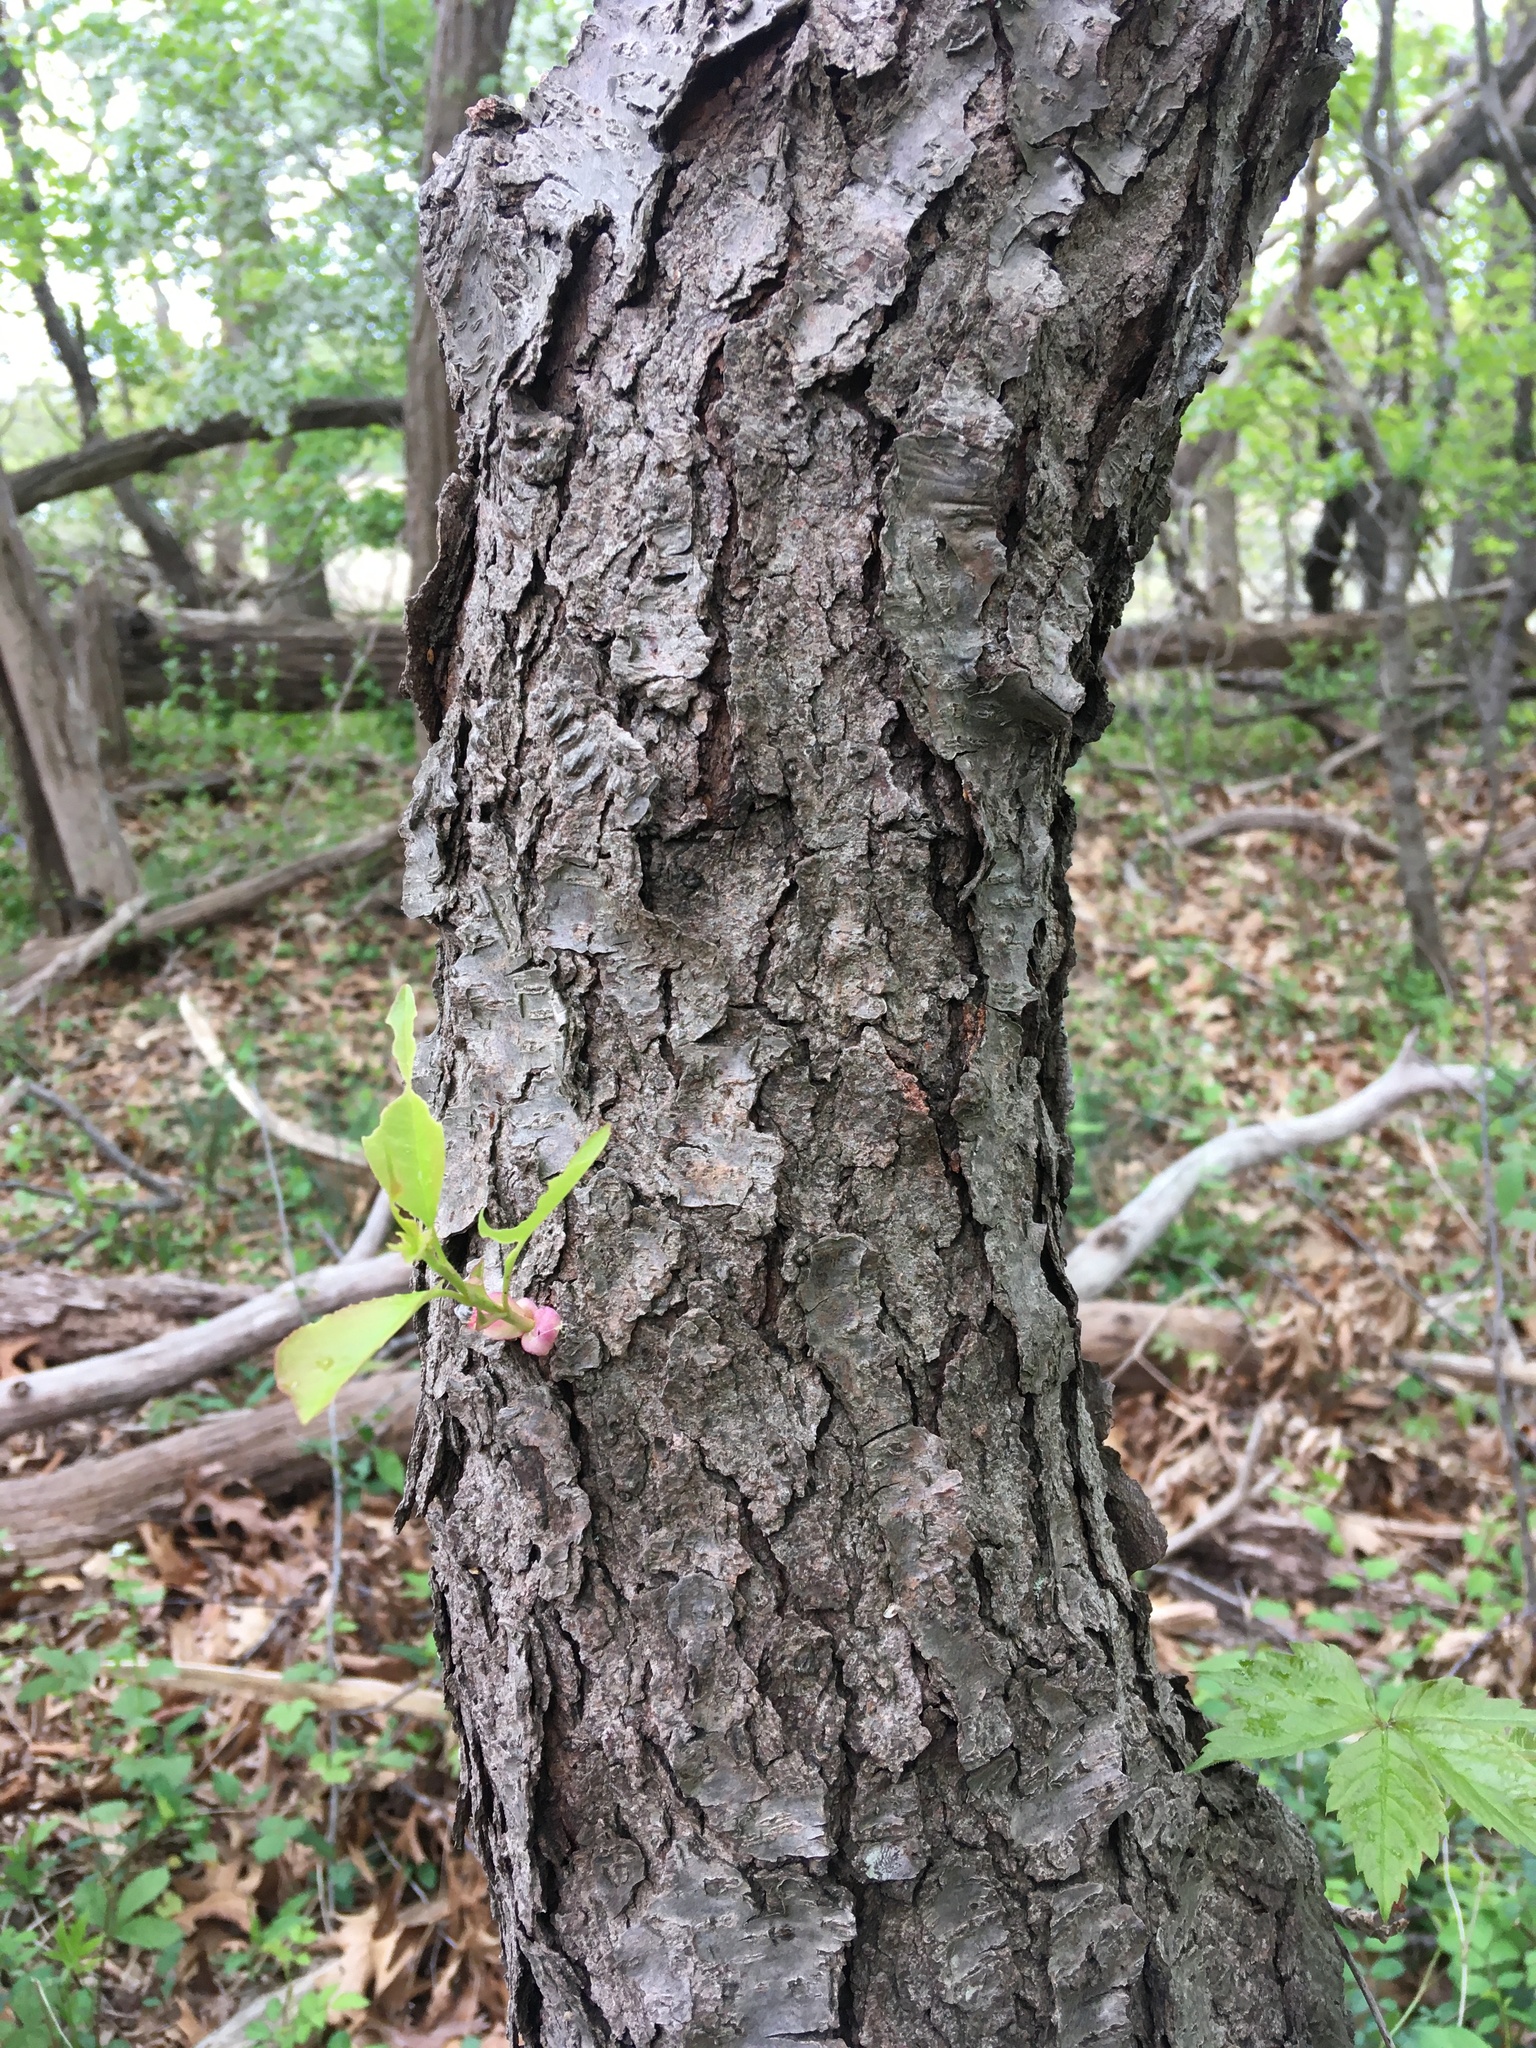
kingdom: Plantae
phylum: Tracheophyta
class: Magnoliopsida
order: Rosales
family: Rosaceae
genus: Prunus
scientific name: Prunus serotina
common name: Black cherry
